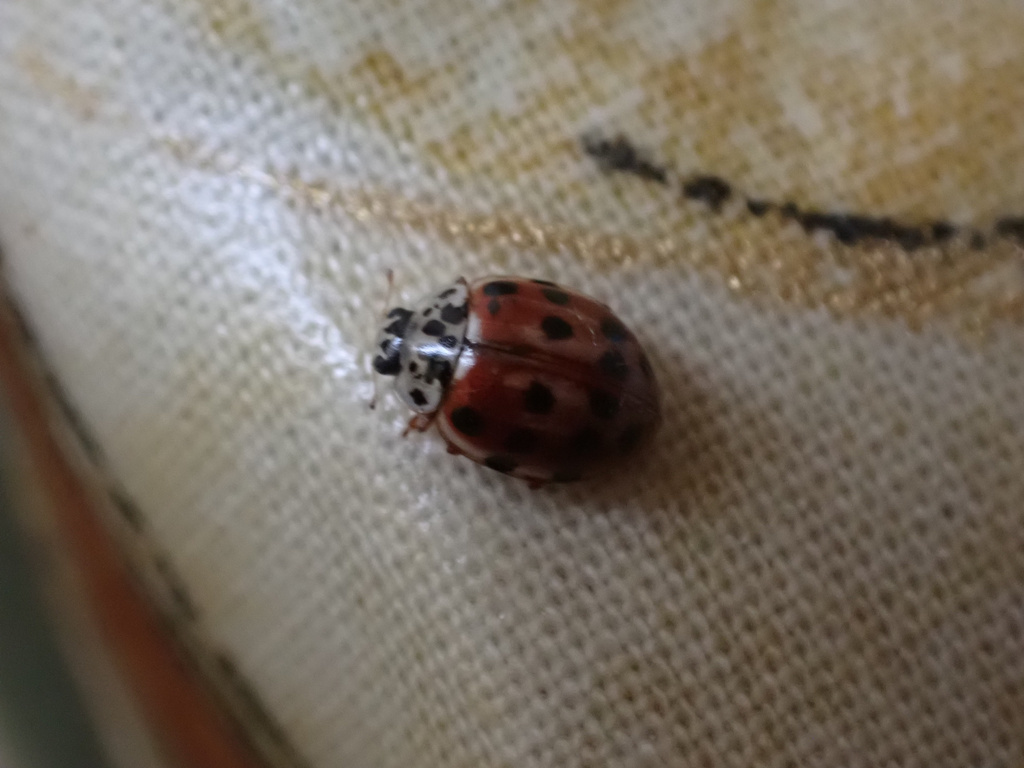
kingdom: Animalia
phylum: Arthropoda
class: Insecta
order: Coleoptera
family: Coccinellidae
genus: Harmonia
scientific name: Harmonia quadripunctata
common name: Cream-streaked ladybird
